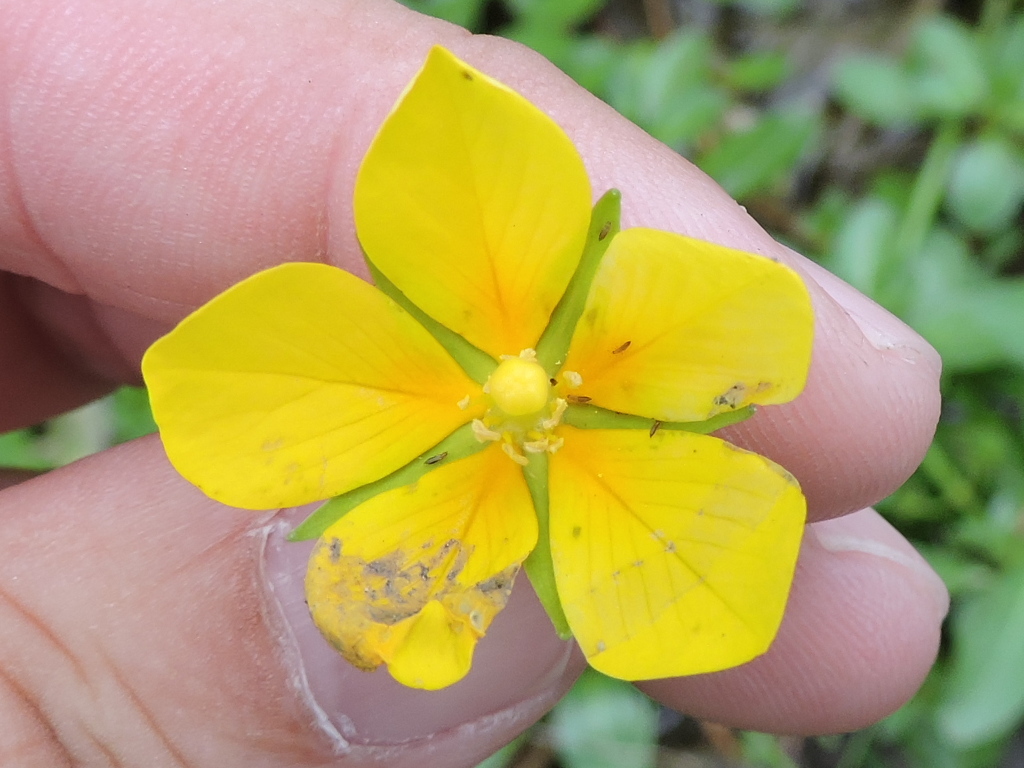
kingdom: Plantae
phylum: Tracheophyta
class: Magnoliopsida
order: Myrtales
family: Onagraceae
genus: Ludwigia
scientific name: Ludwigia peploides
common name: Floating primrose-willow
